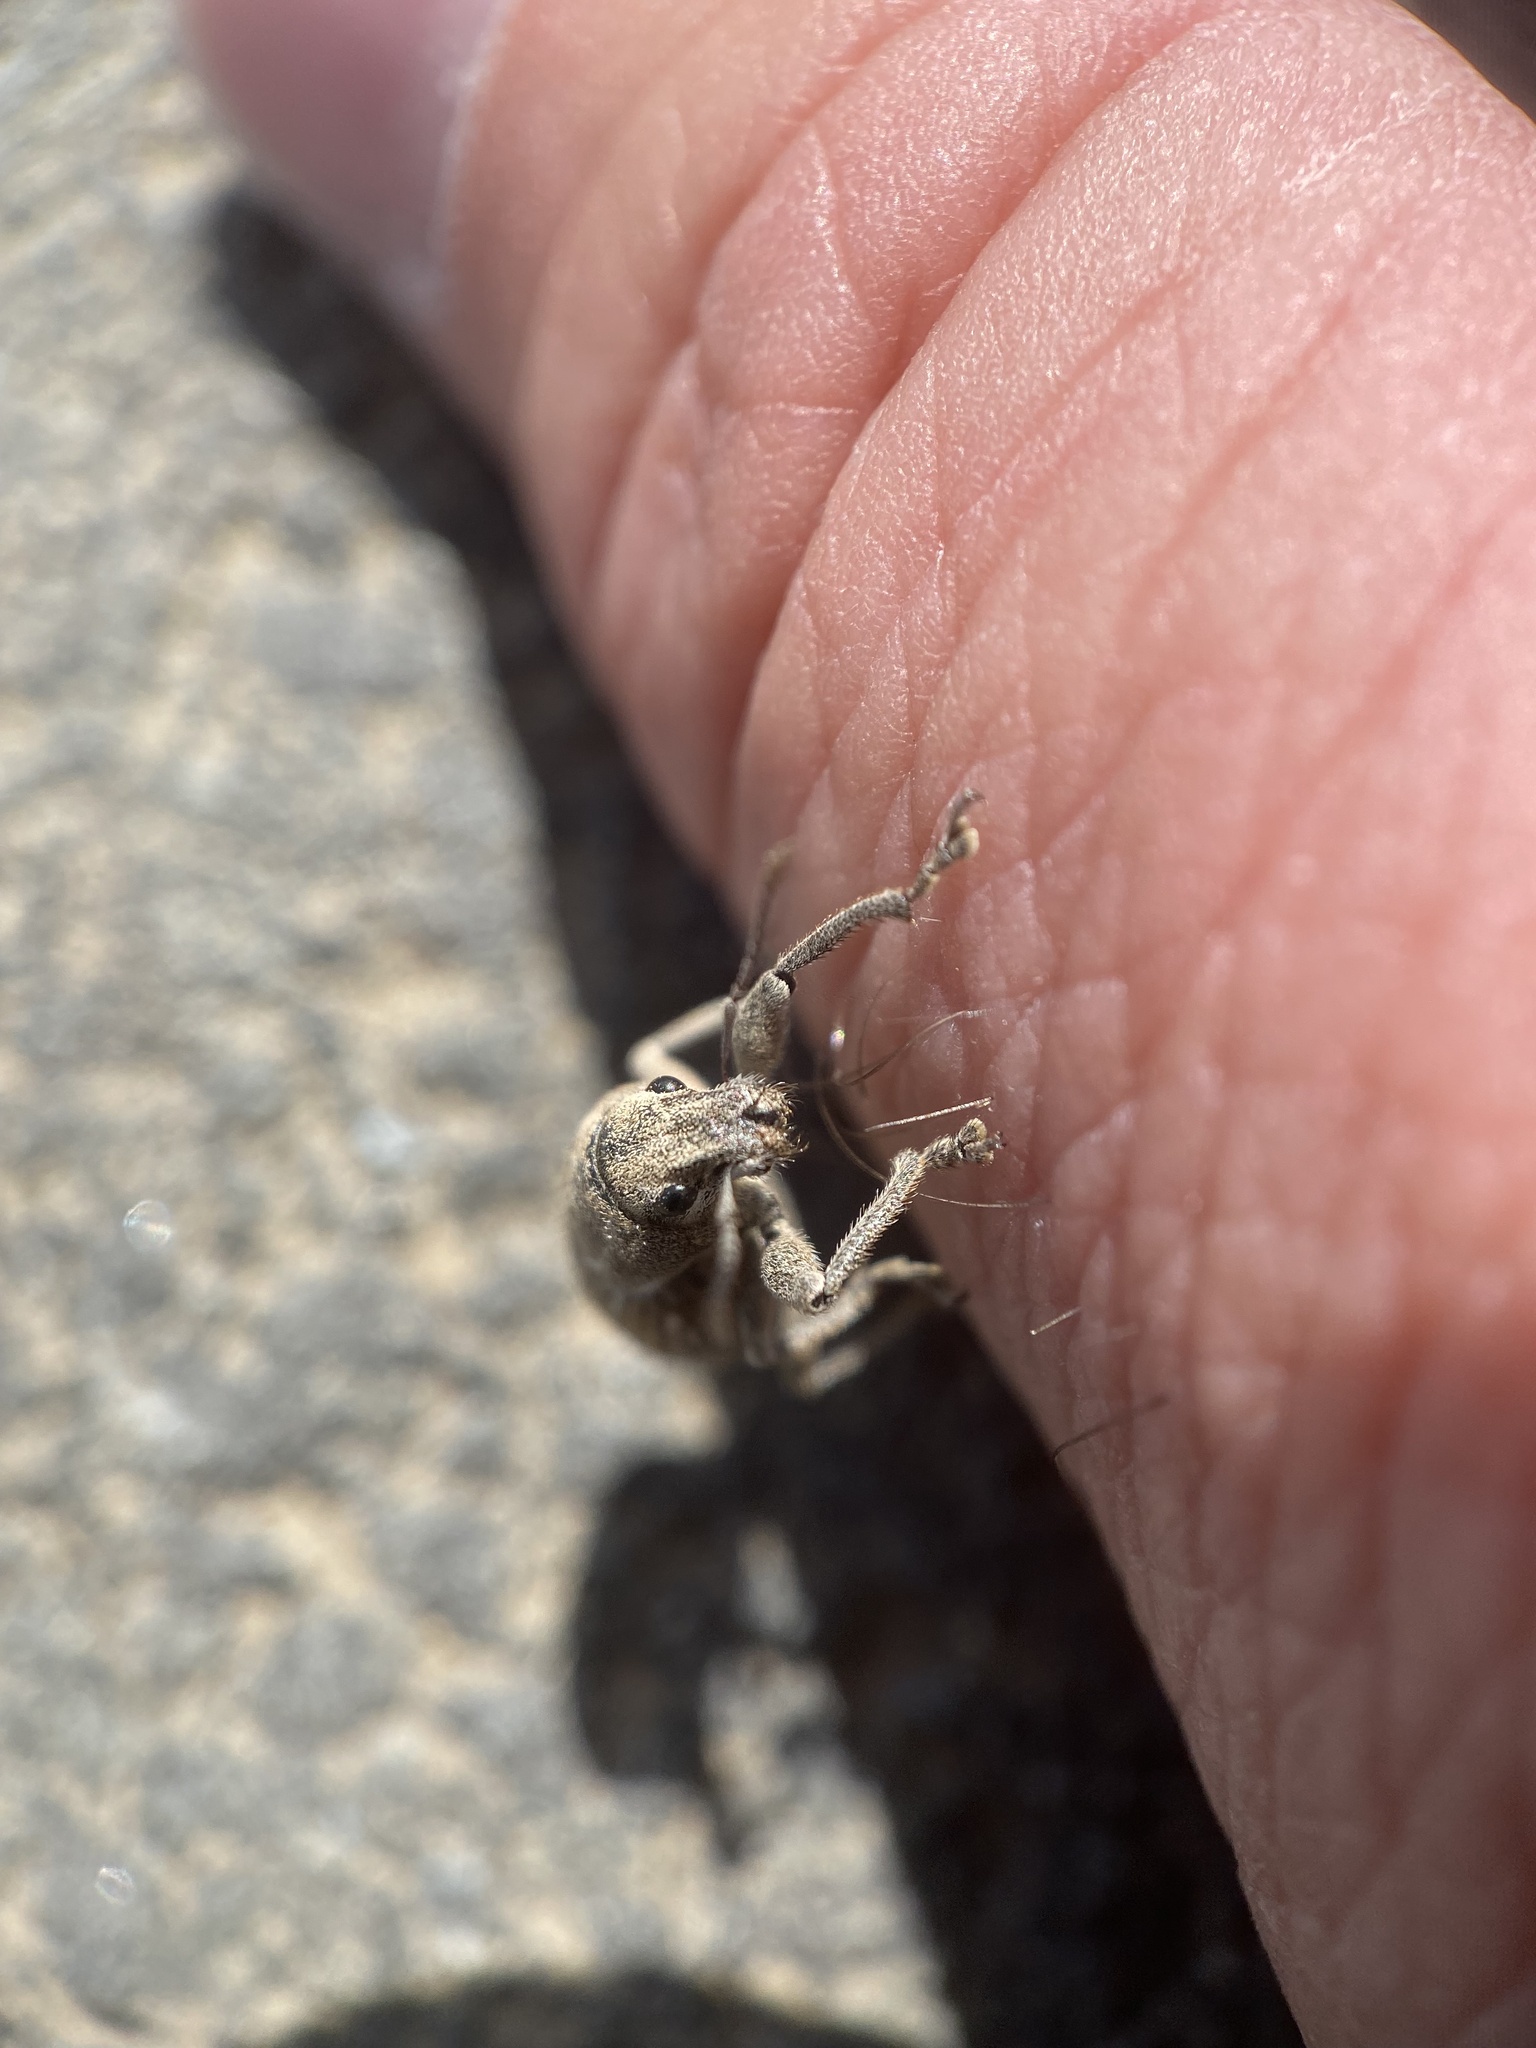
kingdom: Animalia
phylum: Arthropoda
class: Insecta
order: Coleoptera
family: Curculionidae
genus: Naupactus
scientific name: Naupactus leucoloma
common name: Whitefringed beetle
